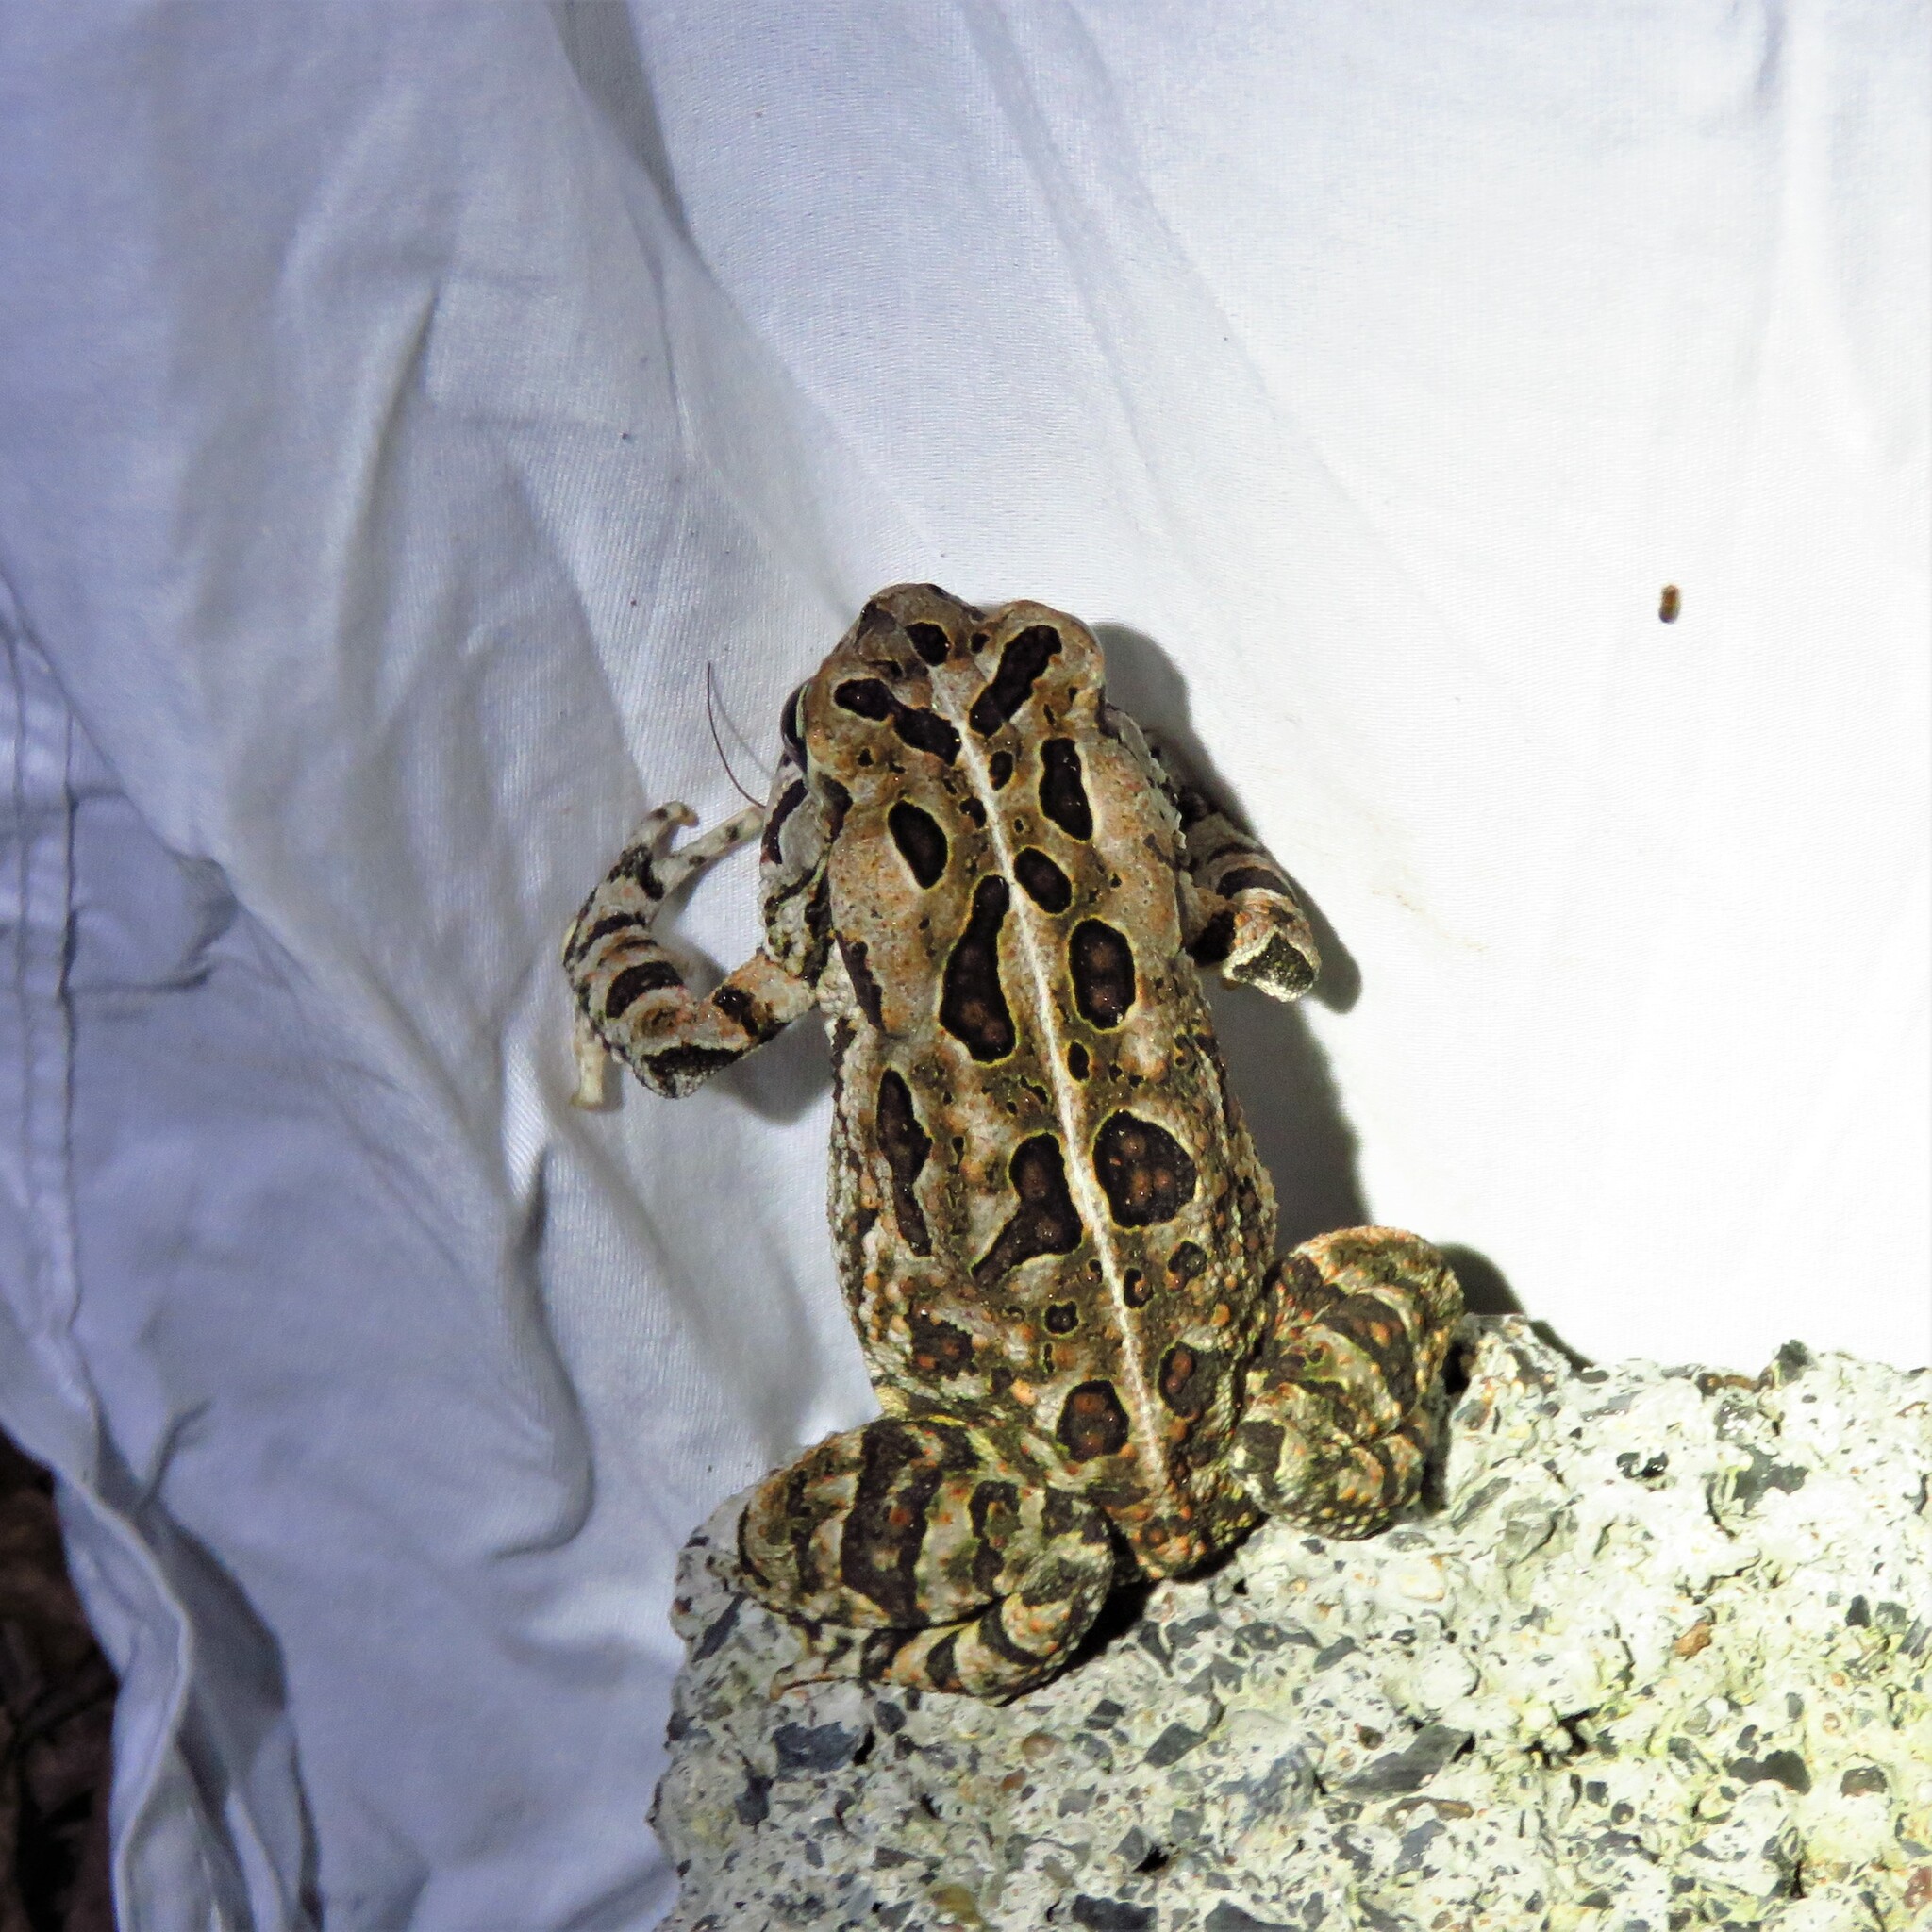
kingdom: Animalia
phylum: Chordata
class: Amphibia
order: Anura
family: Bufonidae
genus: Anaxyrus
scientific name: Anaxyrus fowleri
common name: Fowler's toad
